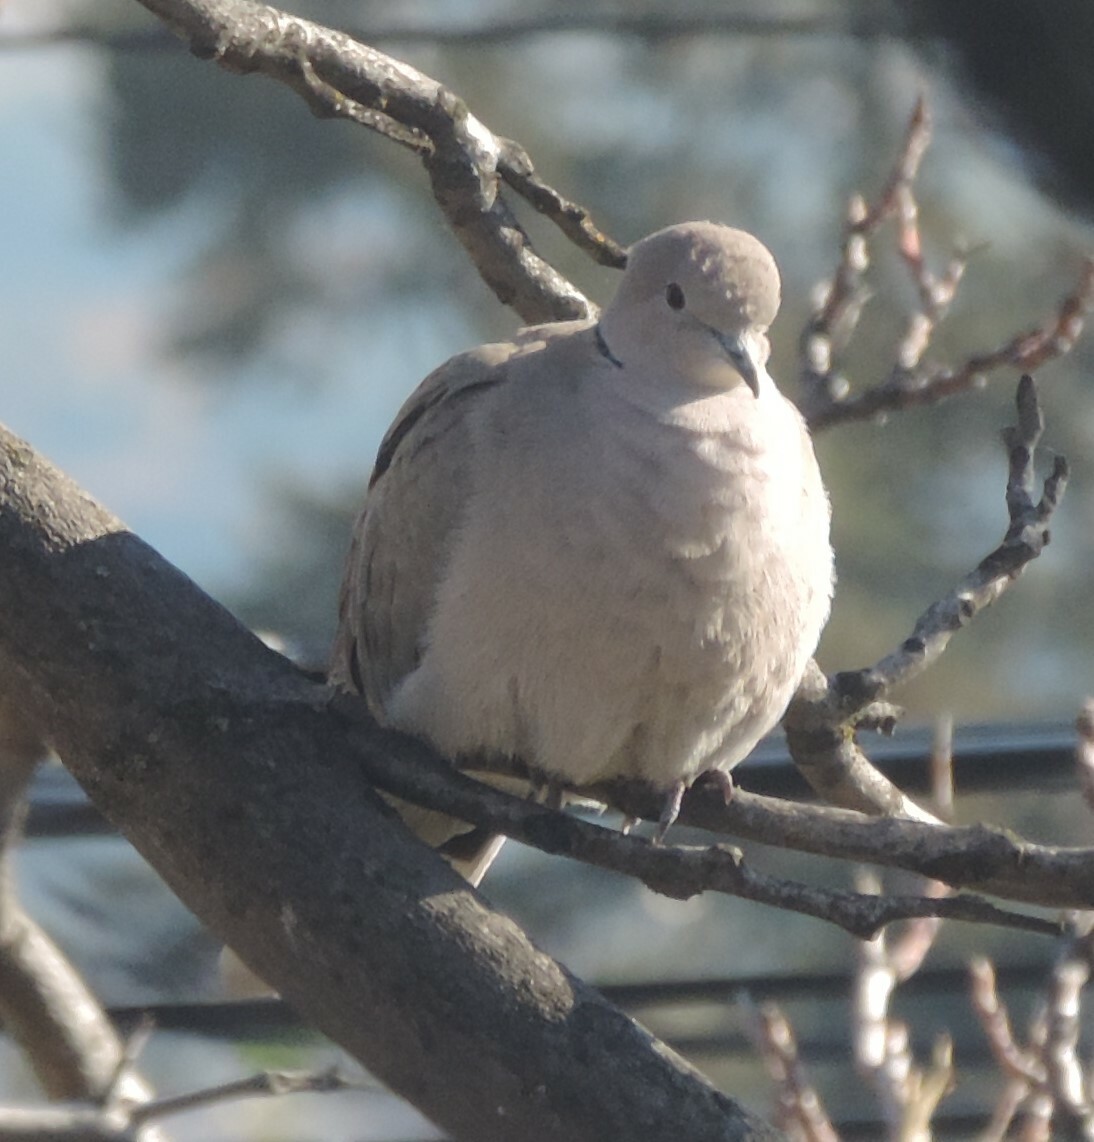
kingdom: Animalia
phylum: Chordata
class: Aves
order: Columbiformes
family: Columbidae
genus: Streptopelia
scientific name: Streptopelia decaocto
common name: Eurasian collared dove
